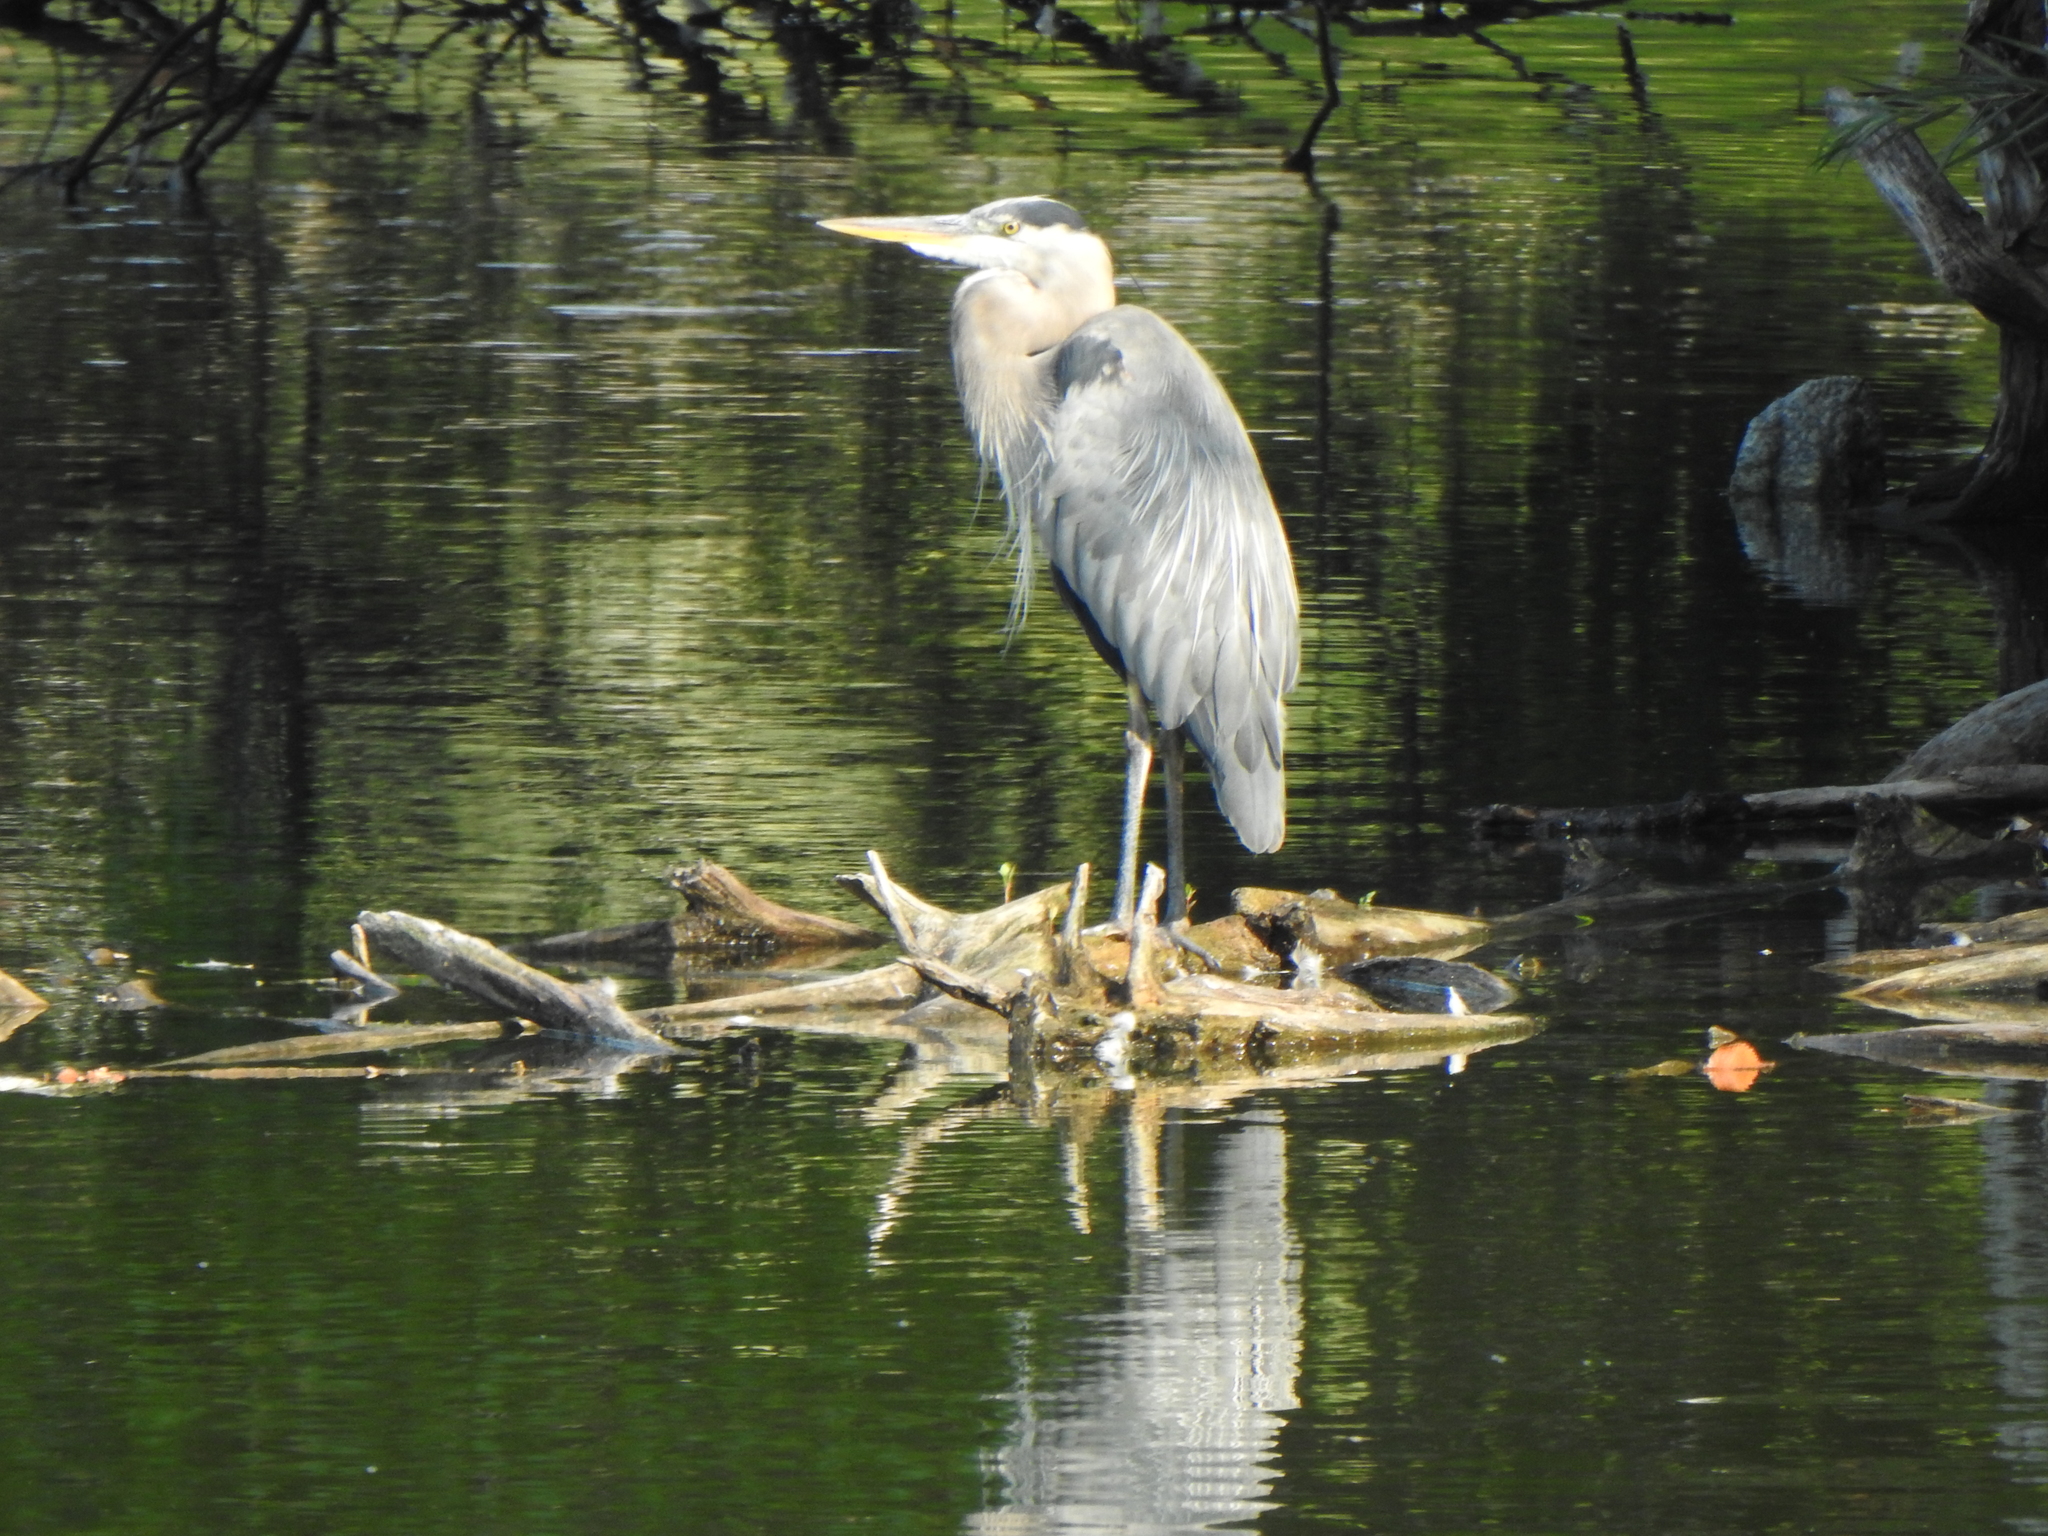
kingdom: Animalia
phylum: Chordata
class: Aves
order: Pelecaniformes
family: Ardeidae
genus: Ardea
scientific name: Ardea herodias
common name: Great blue heron
